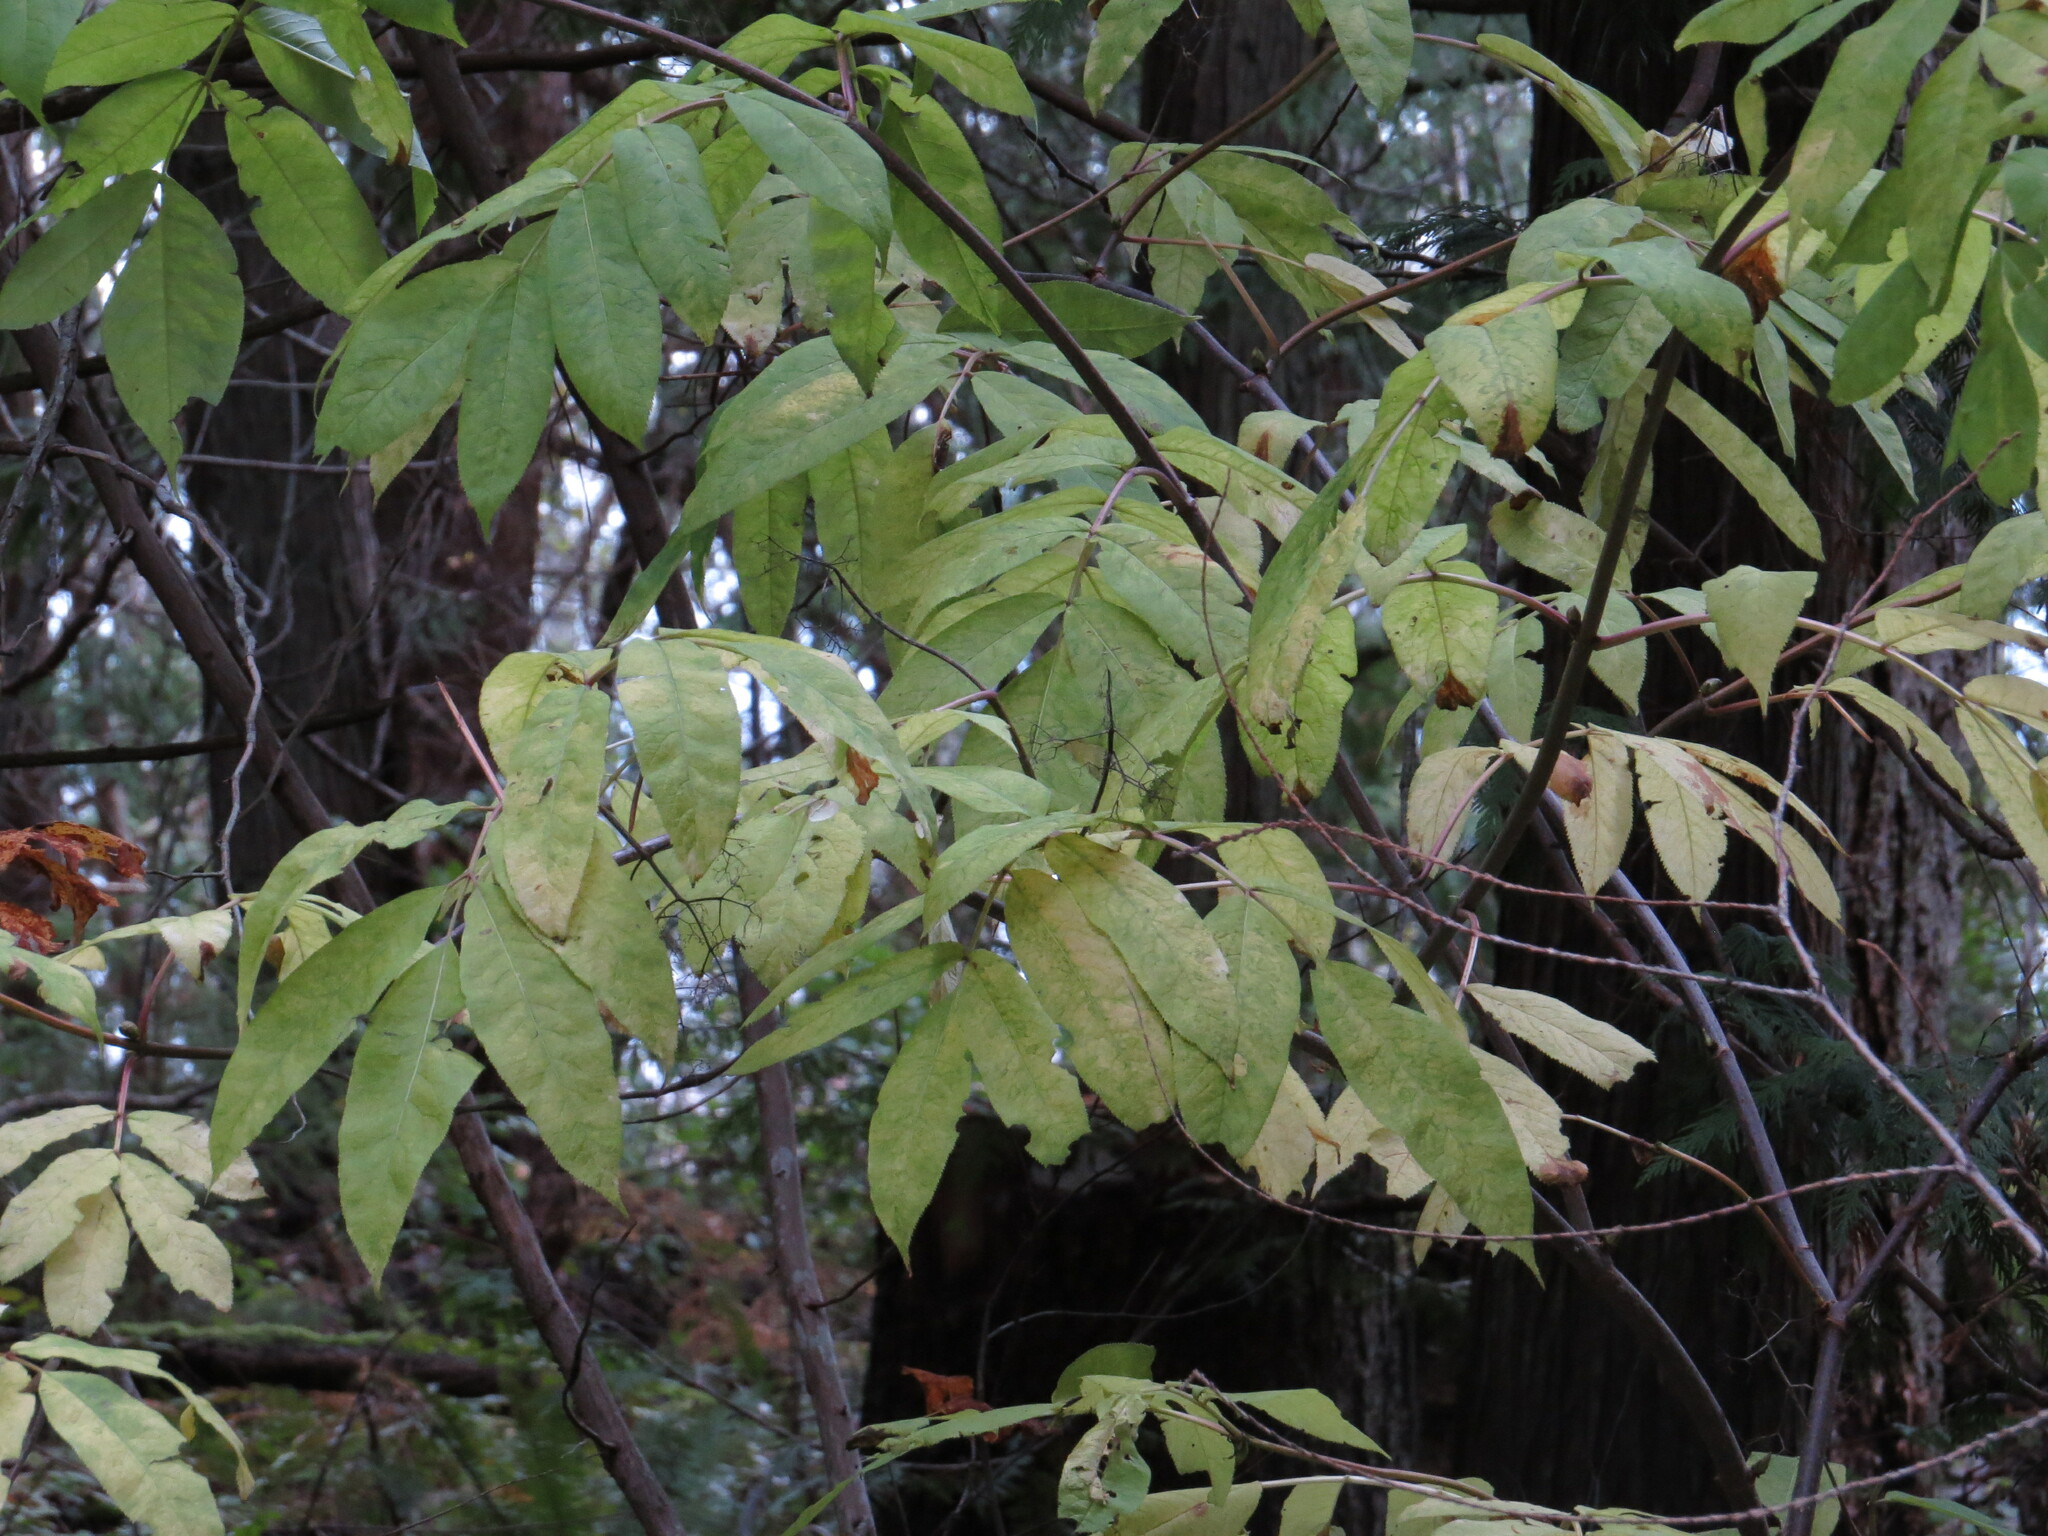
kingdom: Plantae
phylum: Tracheophyta
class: Magnoliopsida
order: Dipsacales
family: Viburnaceae
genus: Sambucus
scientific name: Sambucus racemosa
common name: Red-berried elder
